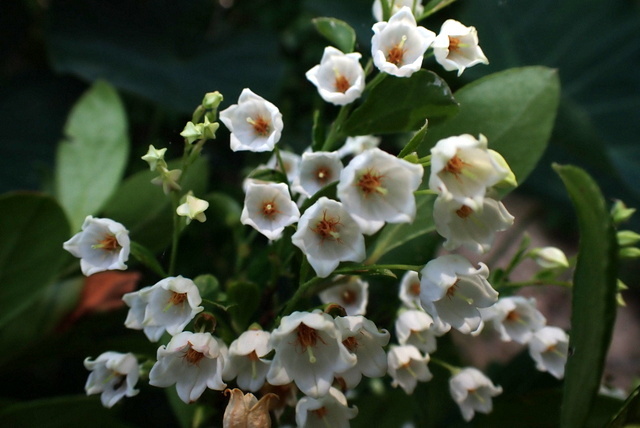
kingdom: Plantae
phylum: Tracheophyta
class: Magnoliopsida
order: Ericales
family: Ericaceae
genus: Vaccinium
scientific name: Vaccinium arboreum
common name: Farkleberry
